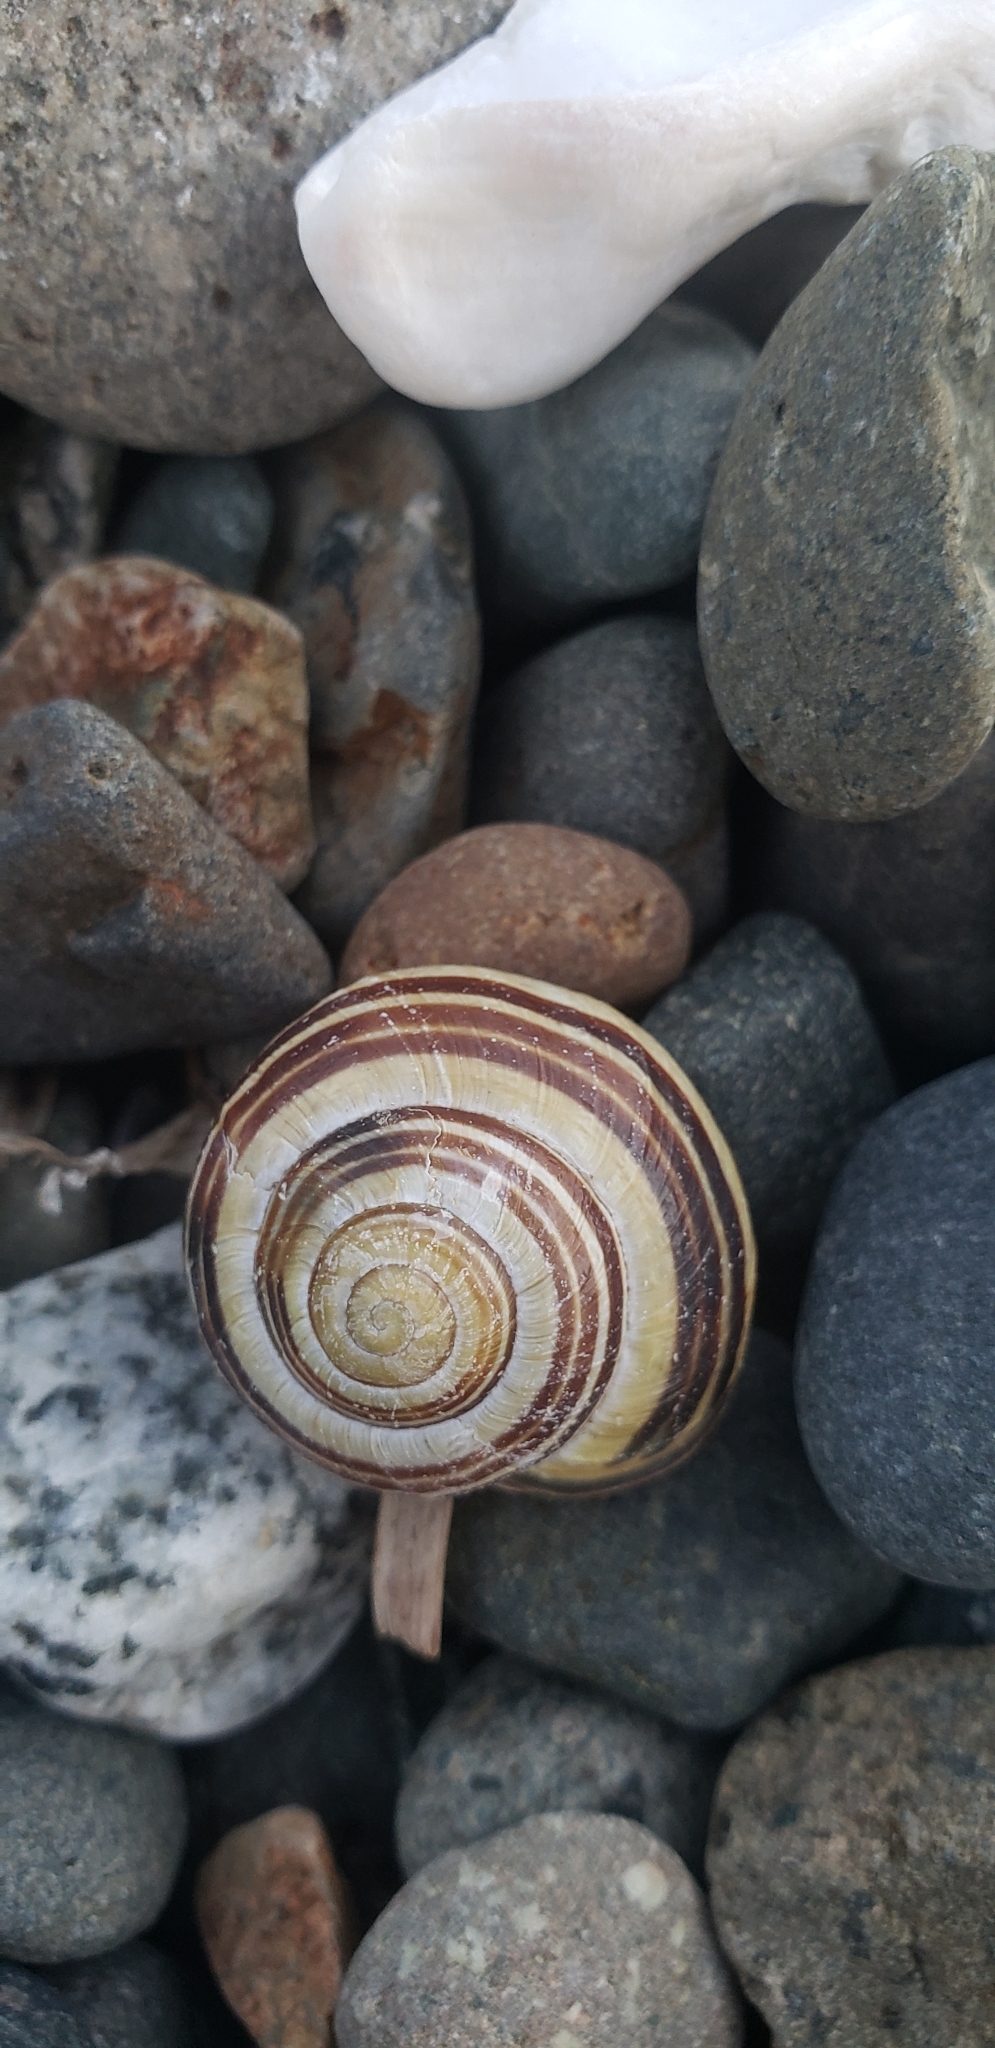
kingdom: Animalia
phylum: Mollusca
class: Gastropoda
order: Stylommatophora
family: Helicidae
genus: Cepaea
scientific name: Cepaea nemoralis
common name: Grovesnail
